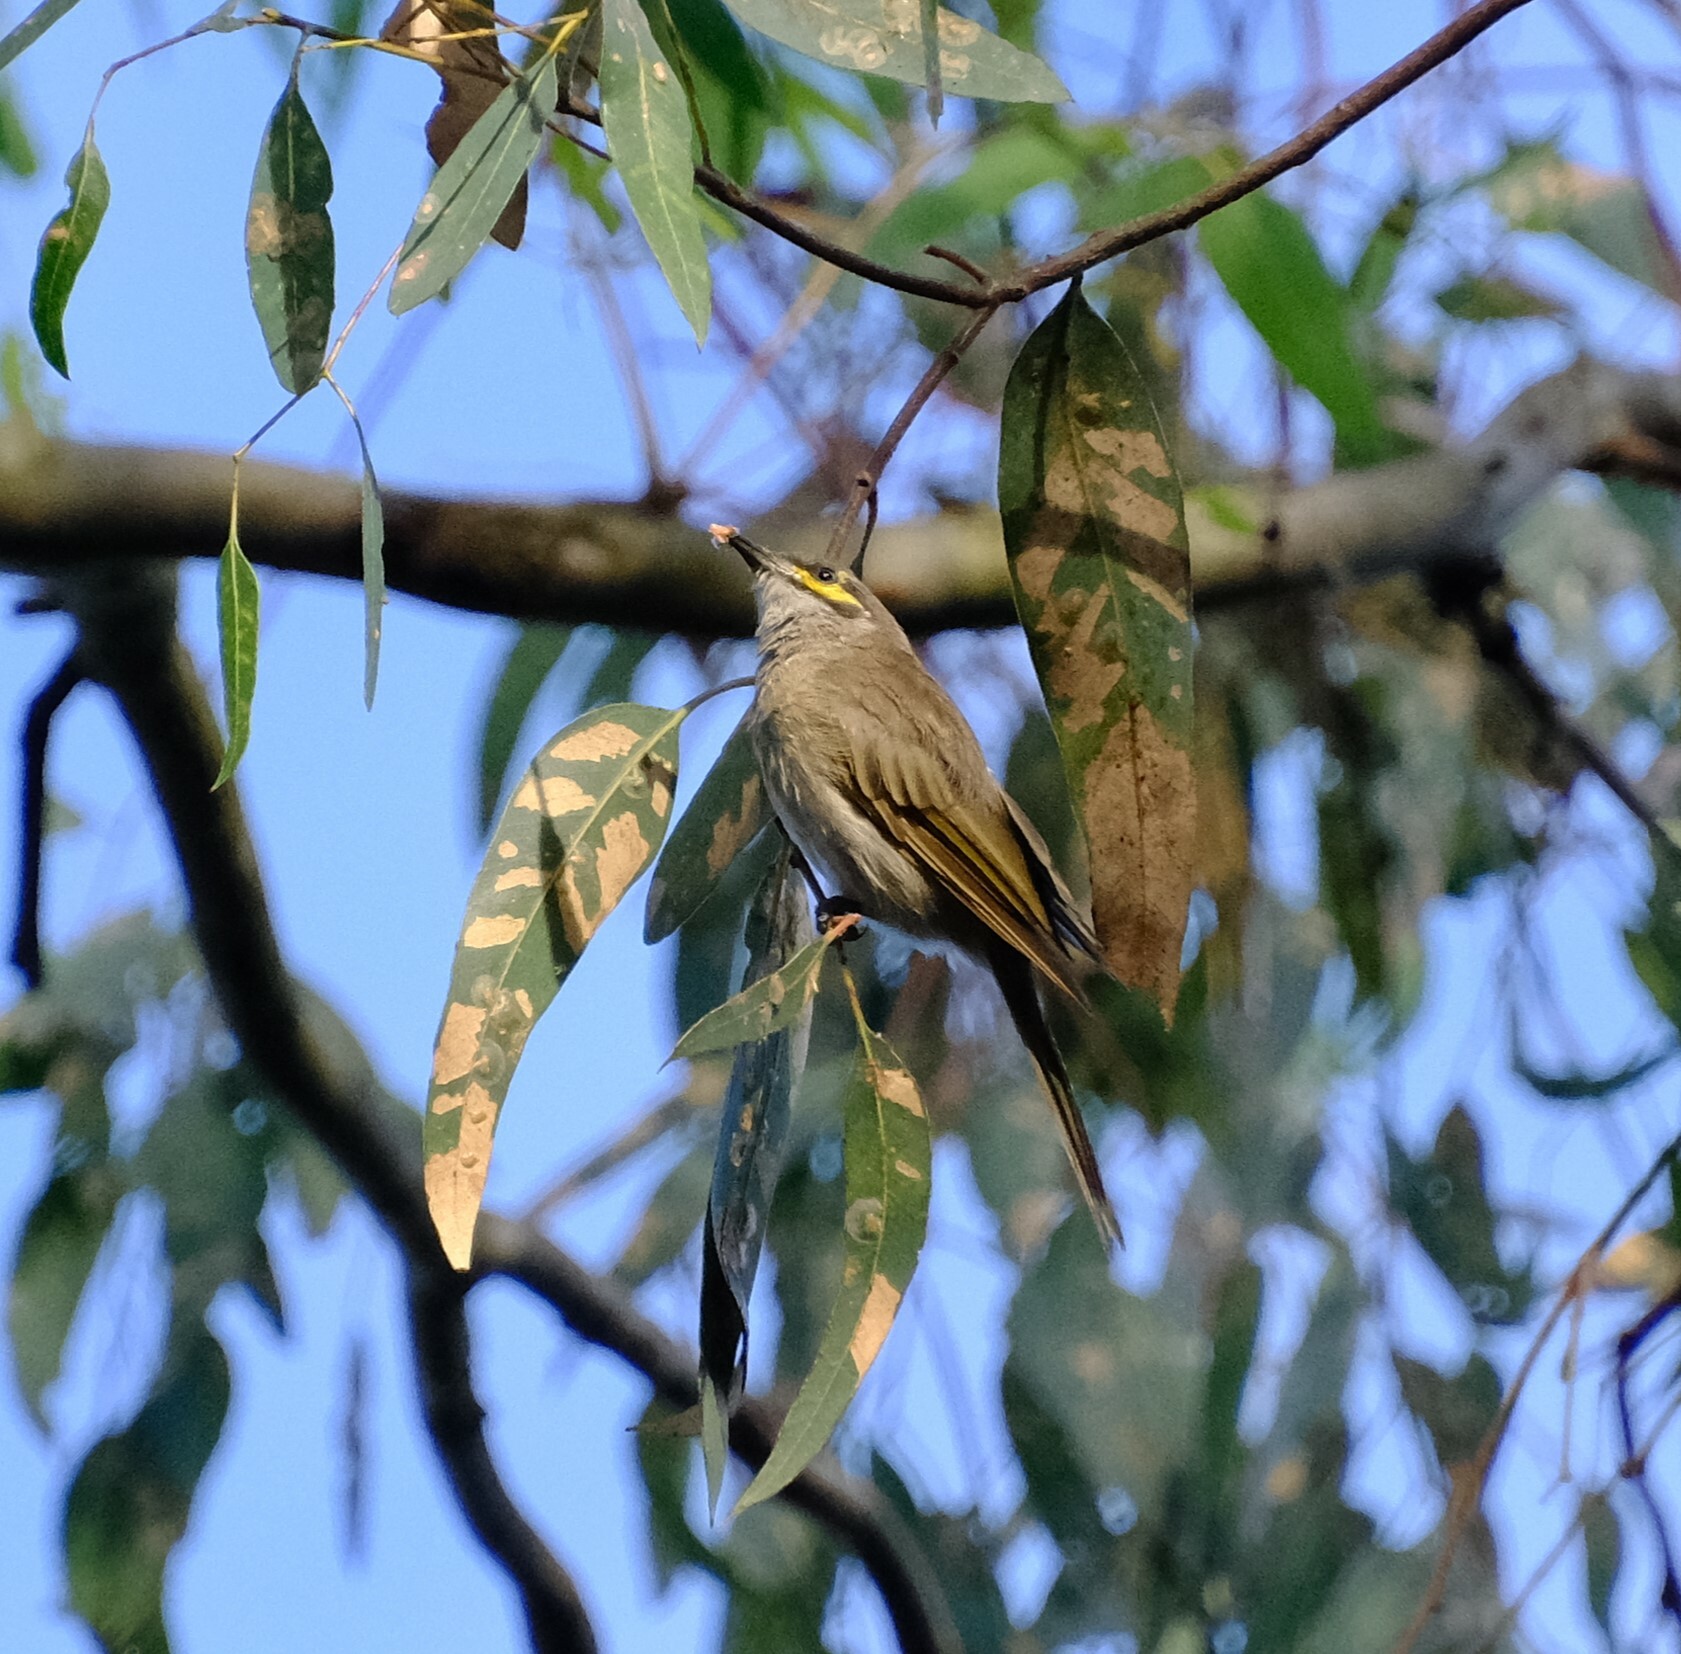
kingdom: Animalia
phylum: Chordata
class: Aves
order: Passeriformes
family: Meliphagidae
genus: Caligavis
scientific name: Caligavis chrysops
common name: Yellow-faced honeyeater
